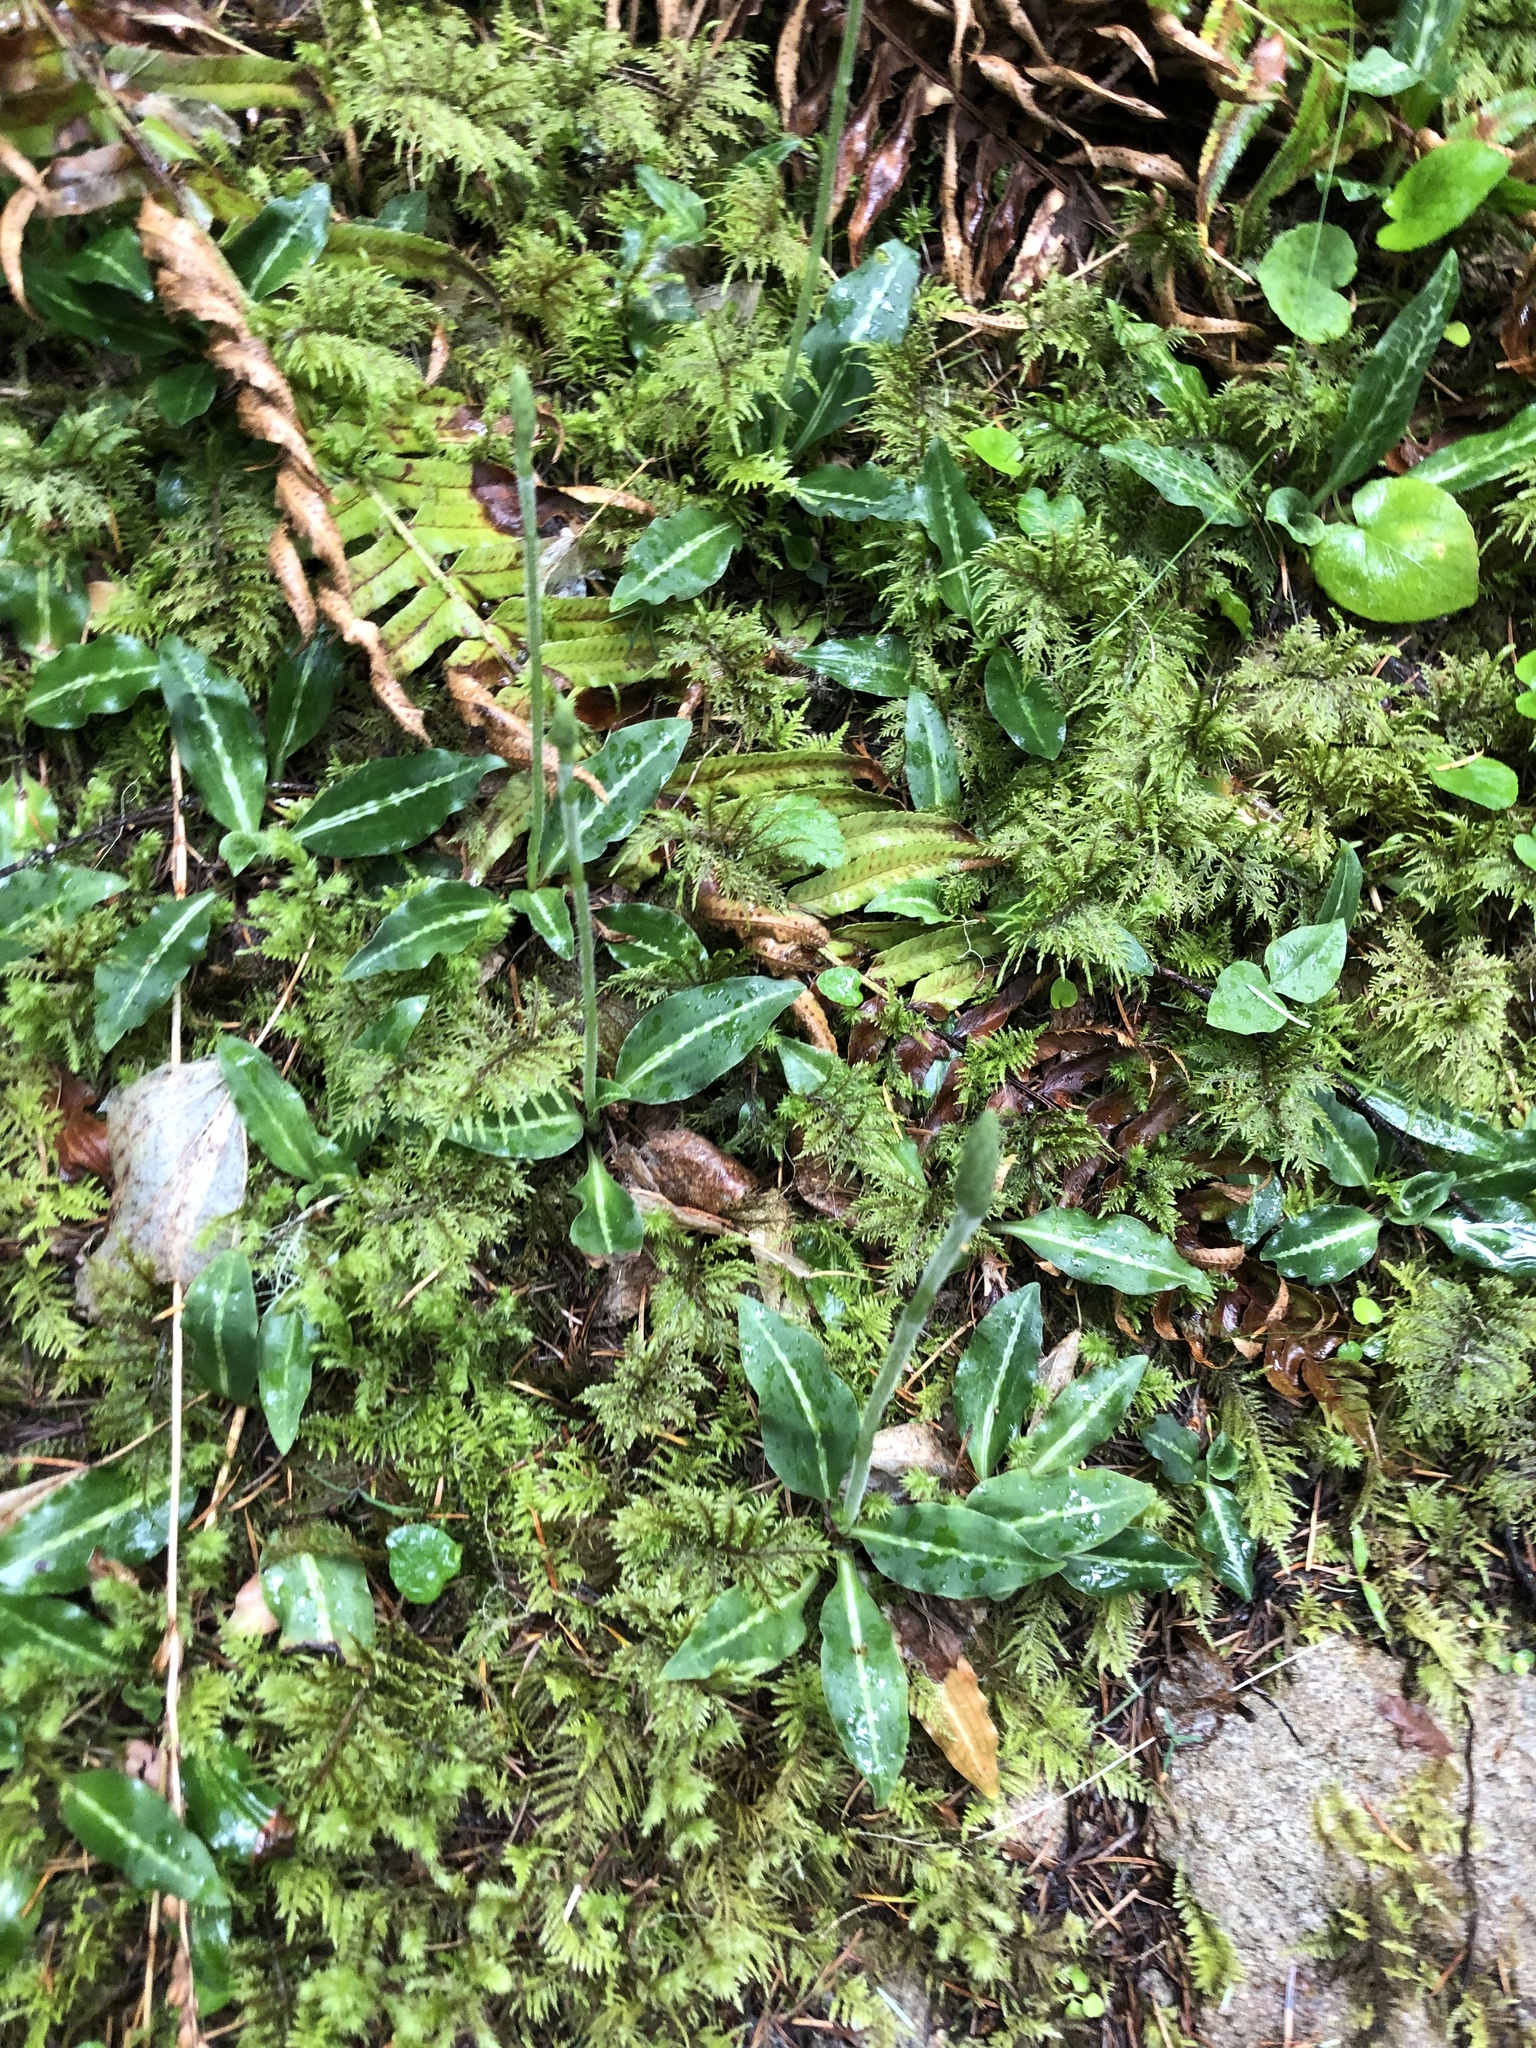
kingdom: Plantae
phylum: Tracheophyta
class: Liliopsida
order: Asparagales
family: Orchidaceae
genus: Goodyera
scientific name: Goodyera oblongifolia
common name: Giant rattlesnake-plantain
